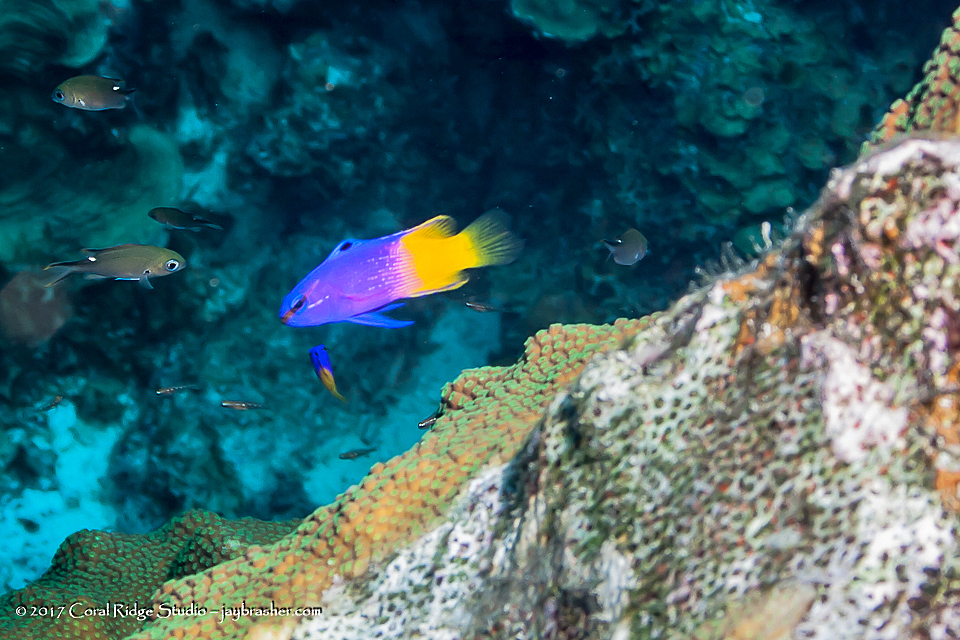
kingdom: Animalia
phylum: Chordata
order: Perciformes
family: Grammatidae
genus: Gramma
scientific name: Gramma loreto
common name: Fairy basslet
